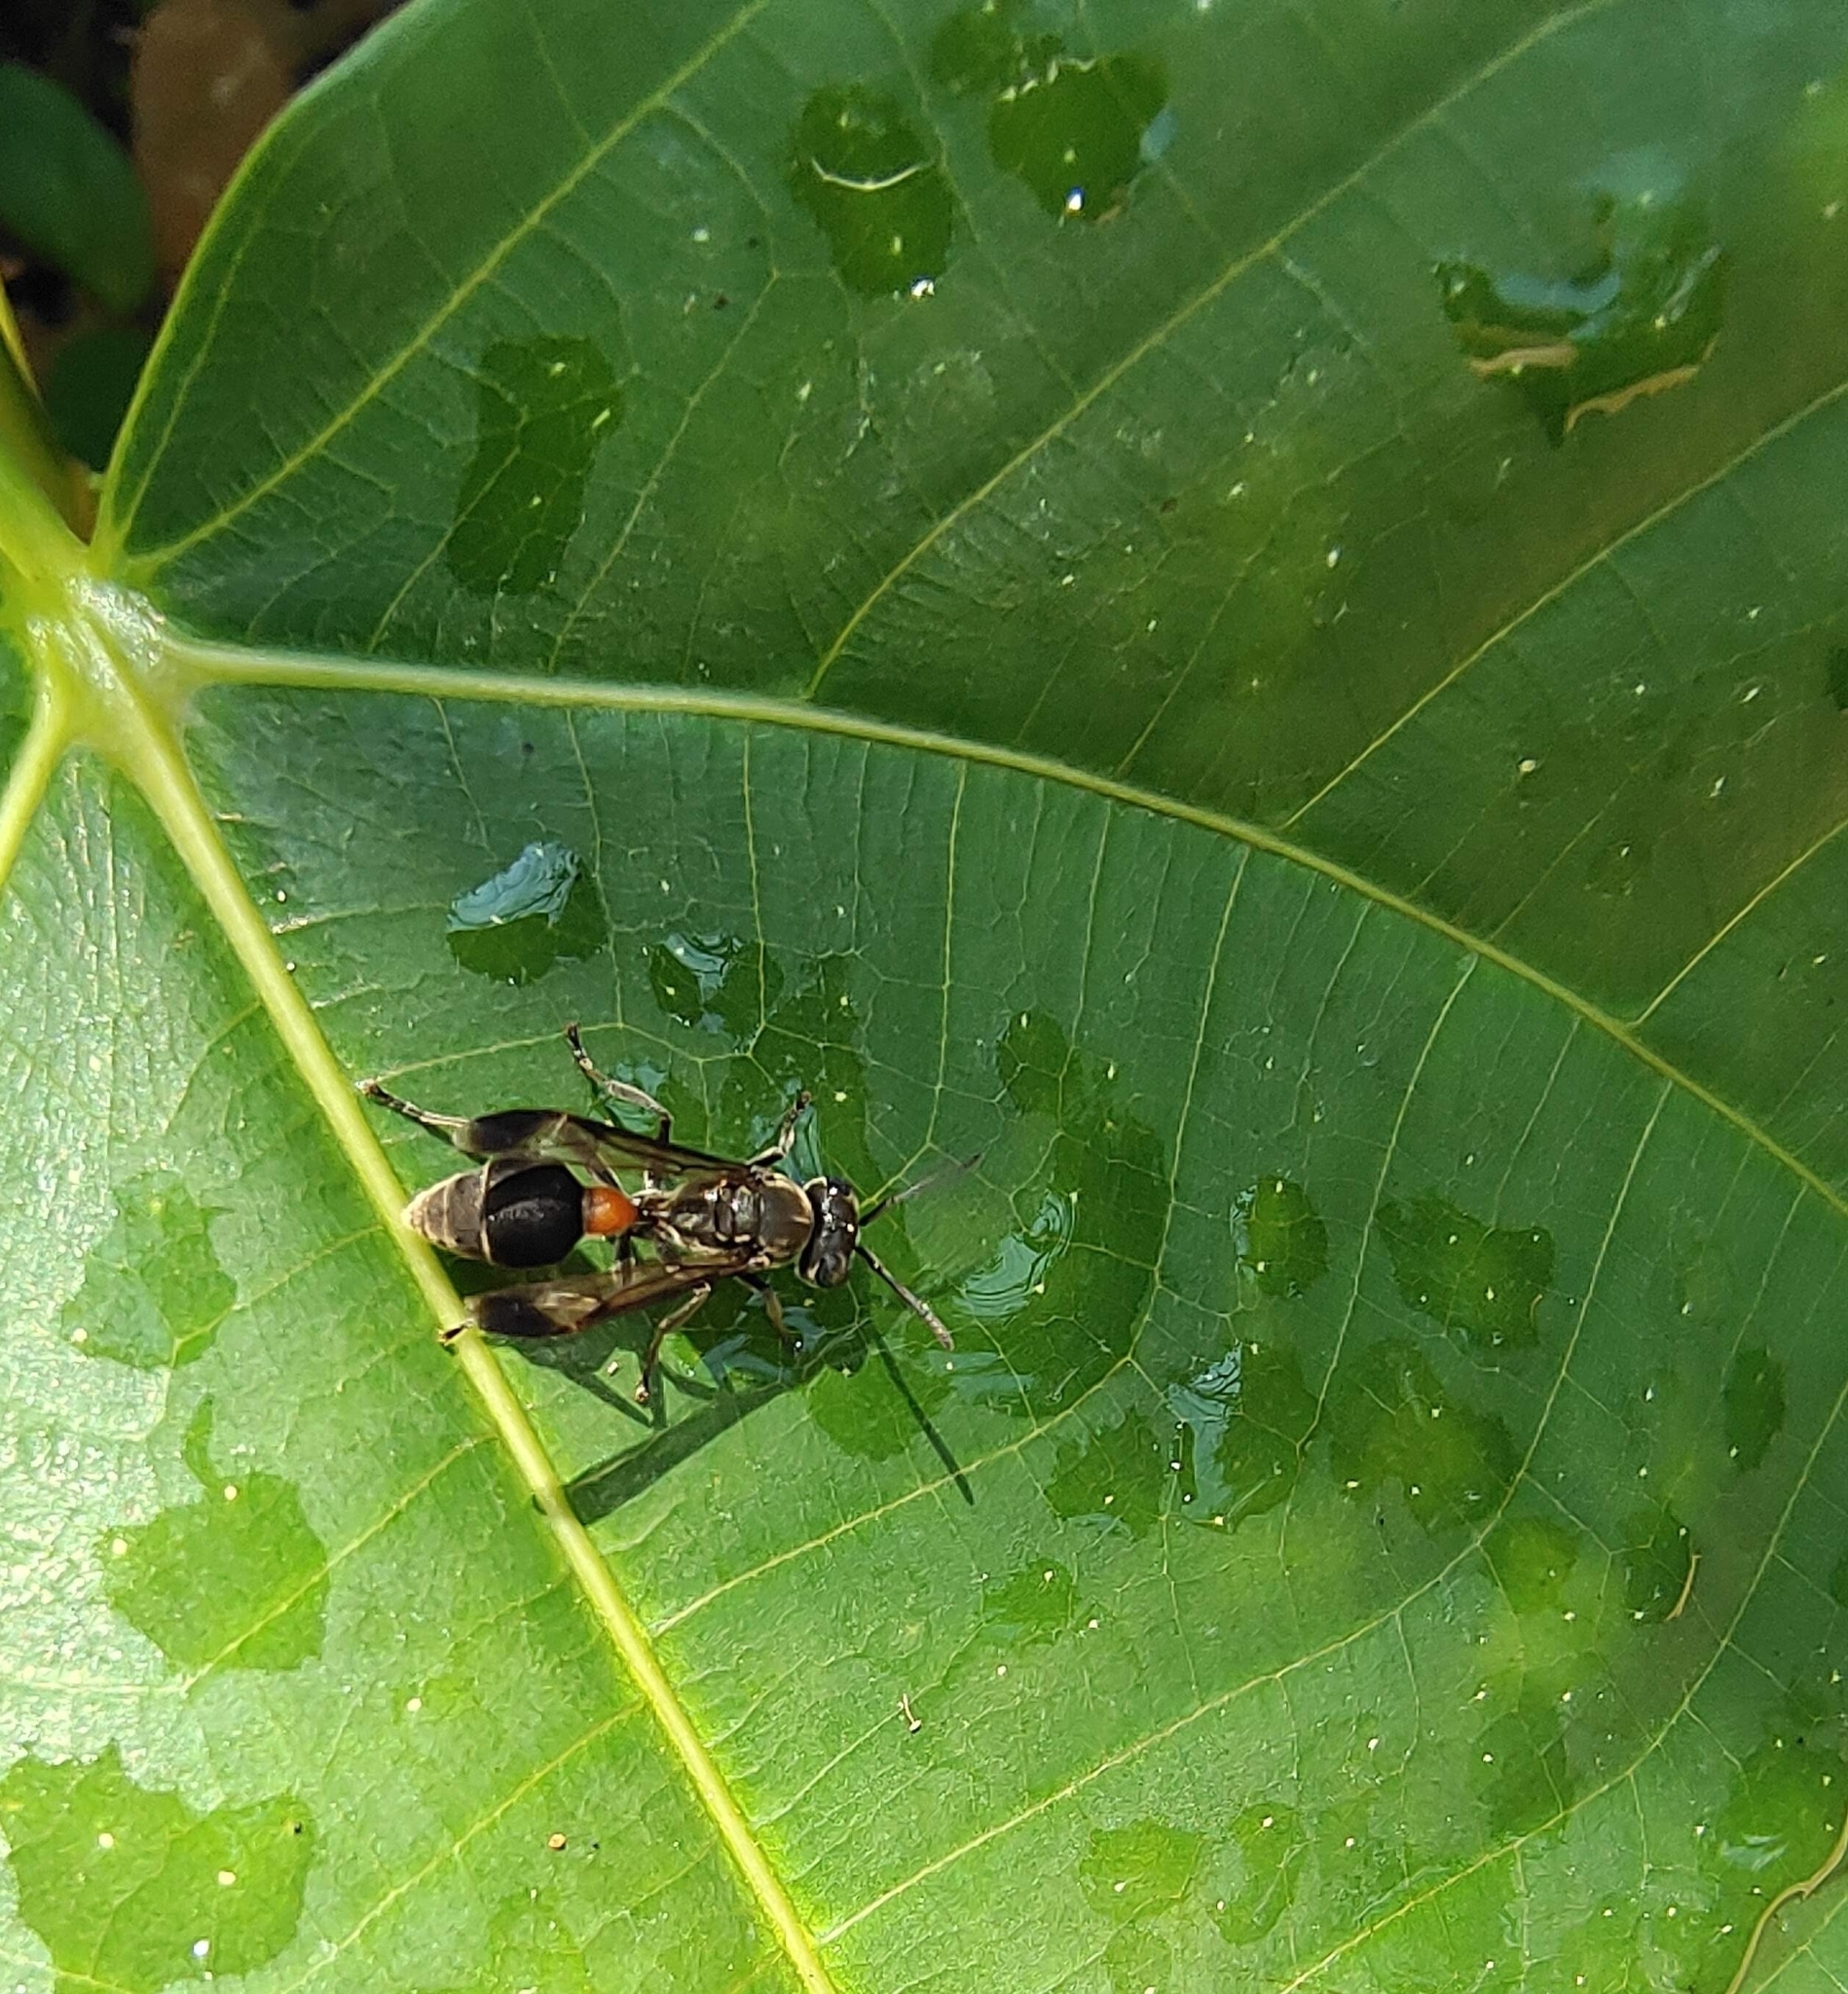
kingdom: Animalia
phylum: Arthropoda
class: Insecta
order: Hymenoptera
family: Vespidae
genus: Ropalidia
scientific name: Ropalidia sumatrae
